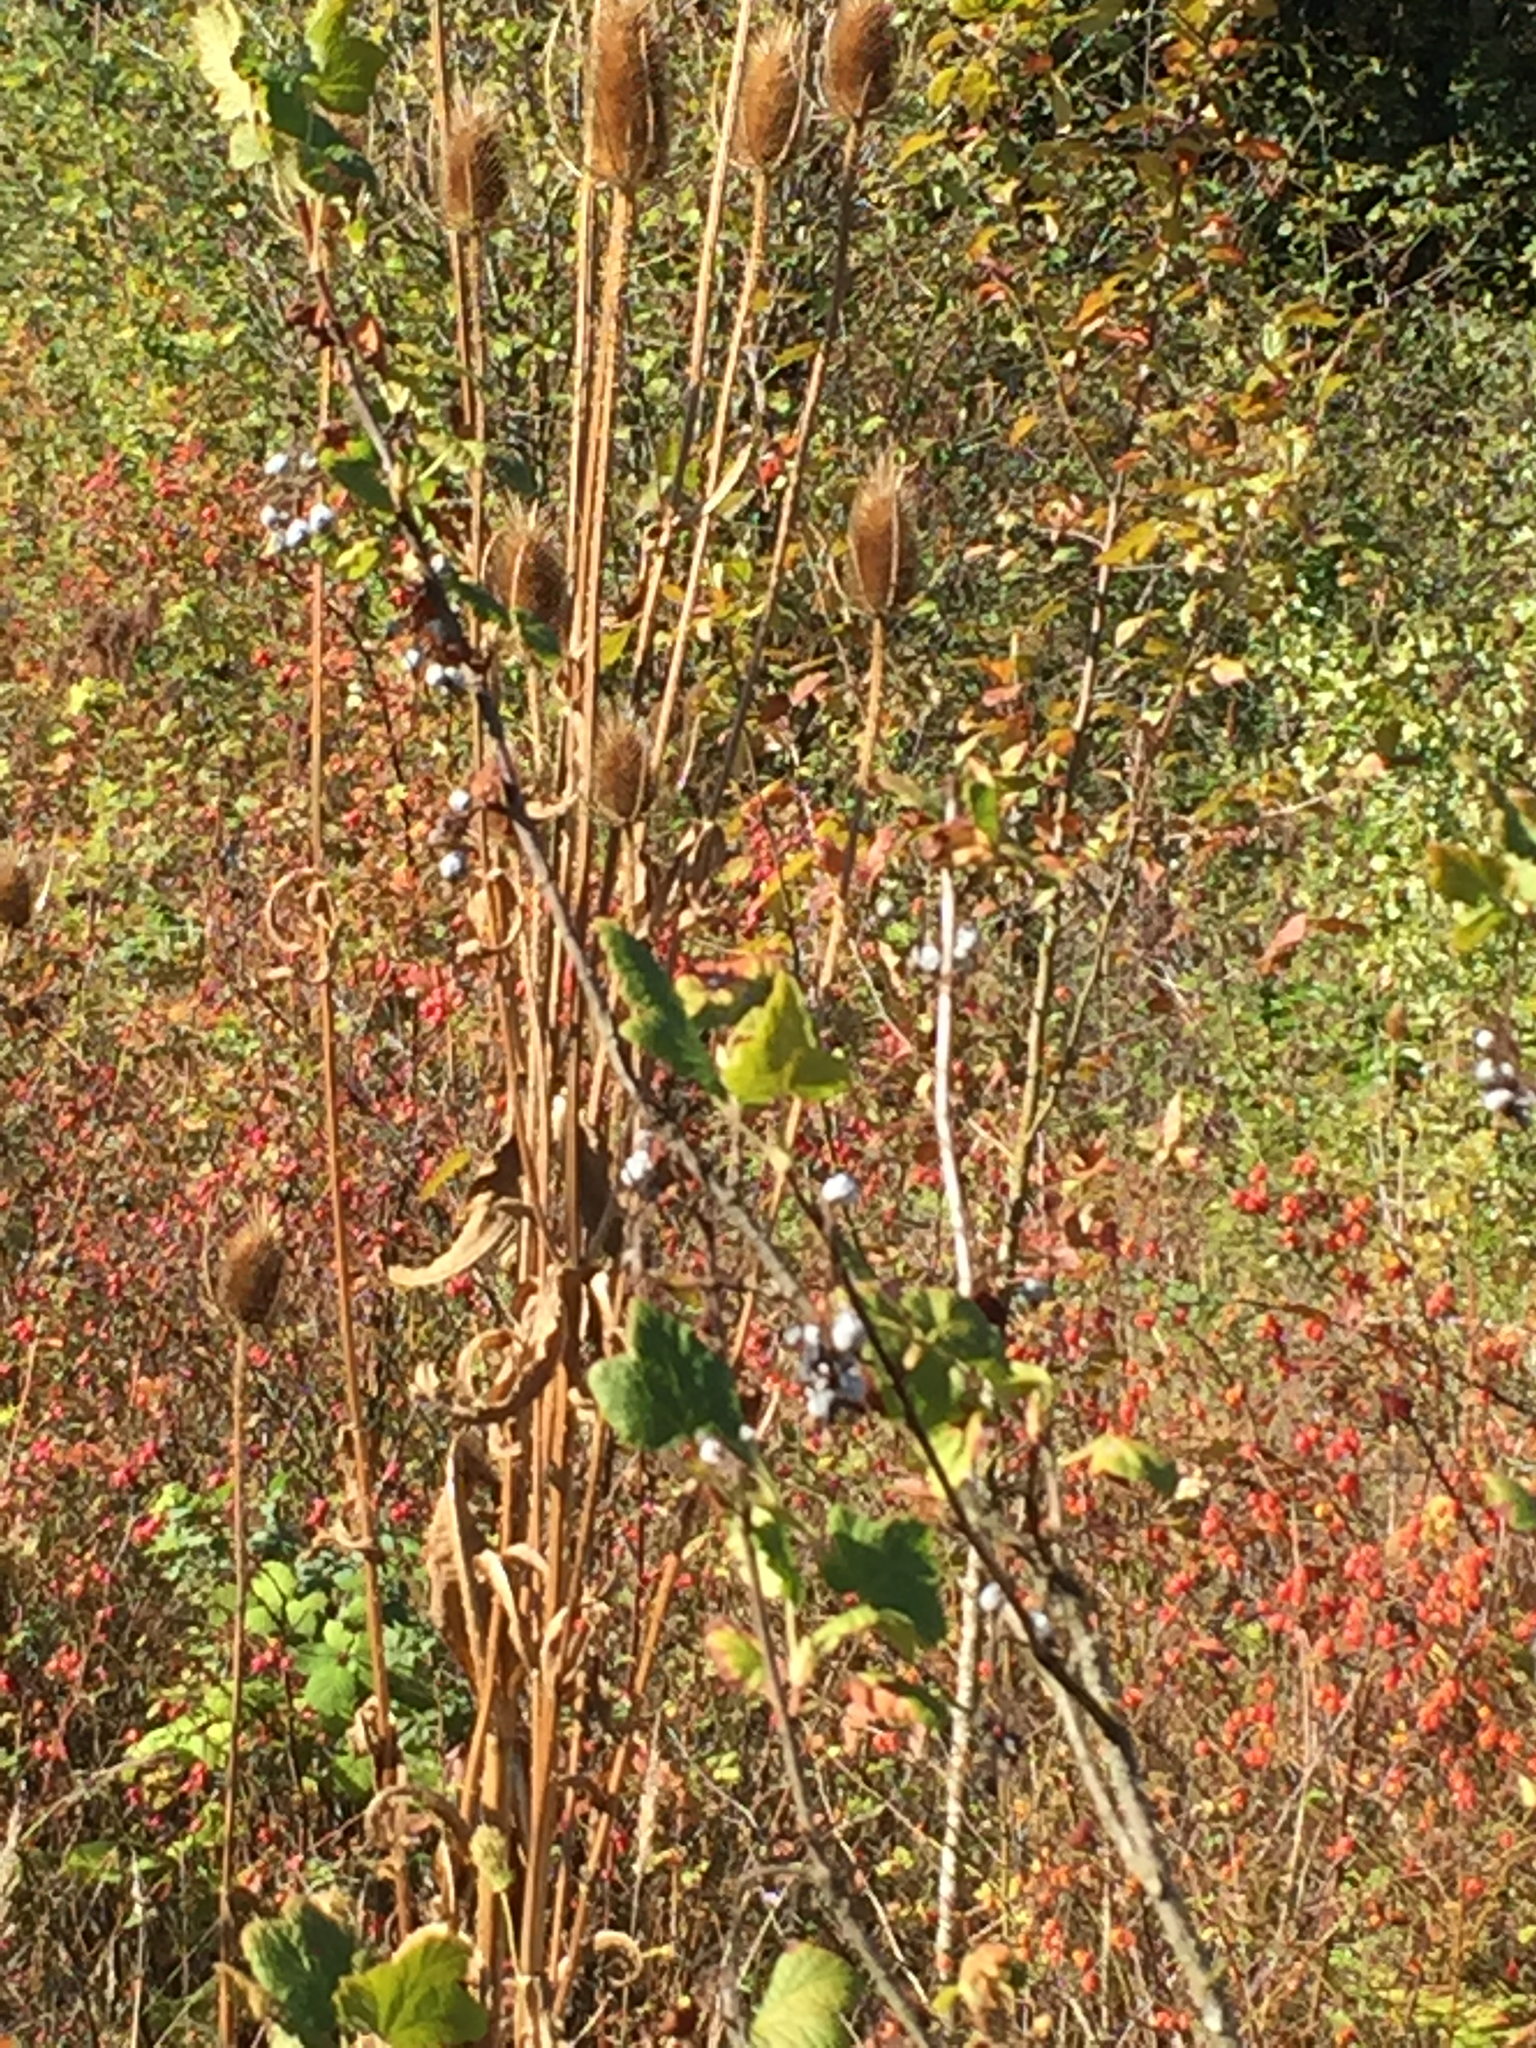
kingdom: Plantae
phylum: Tracheophyta
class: Magnoliopsida
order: Dipsacales
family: Caprifoliaceae
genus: Dipsacus
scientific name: Dipsacus fullonum
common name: Teasel
